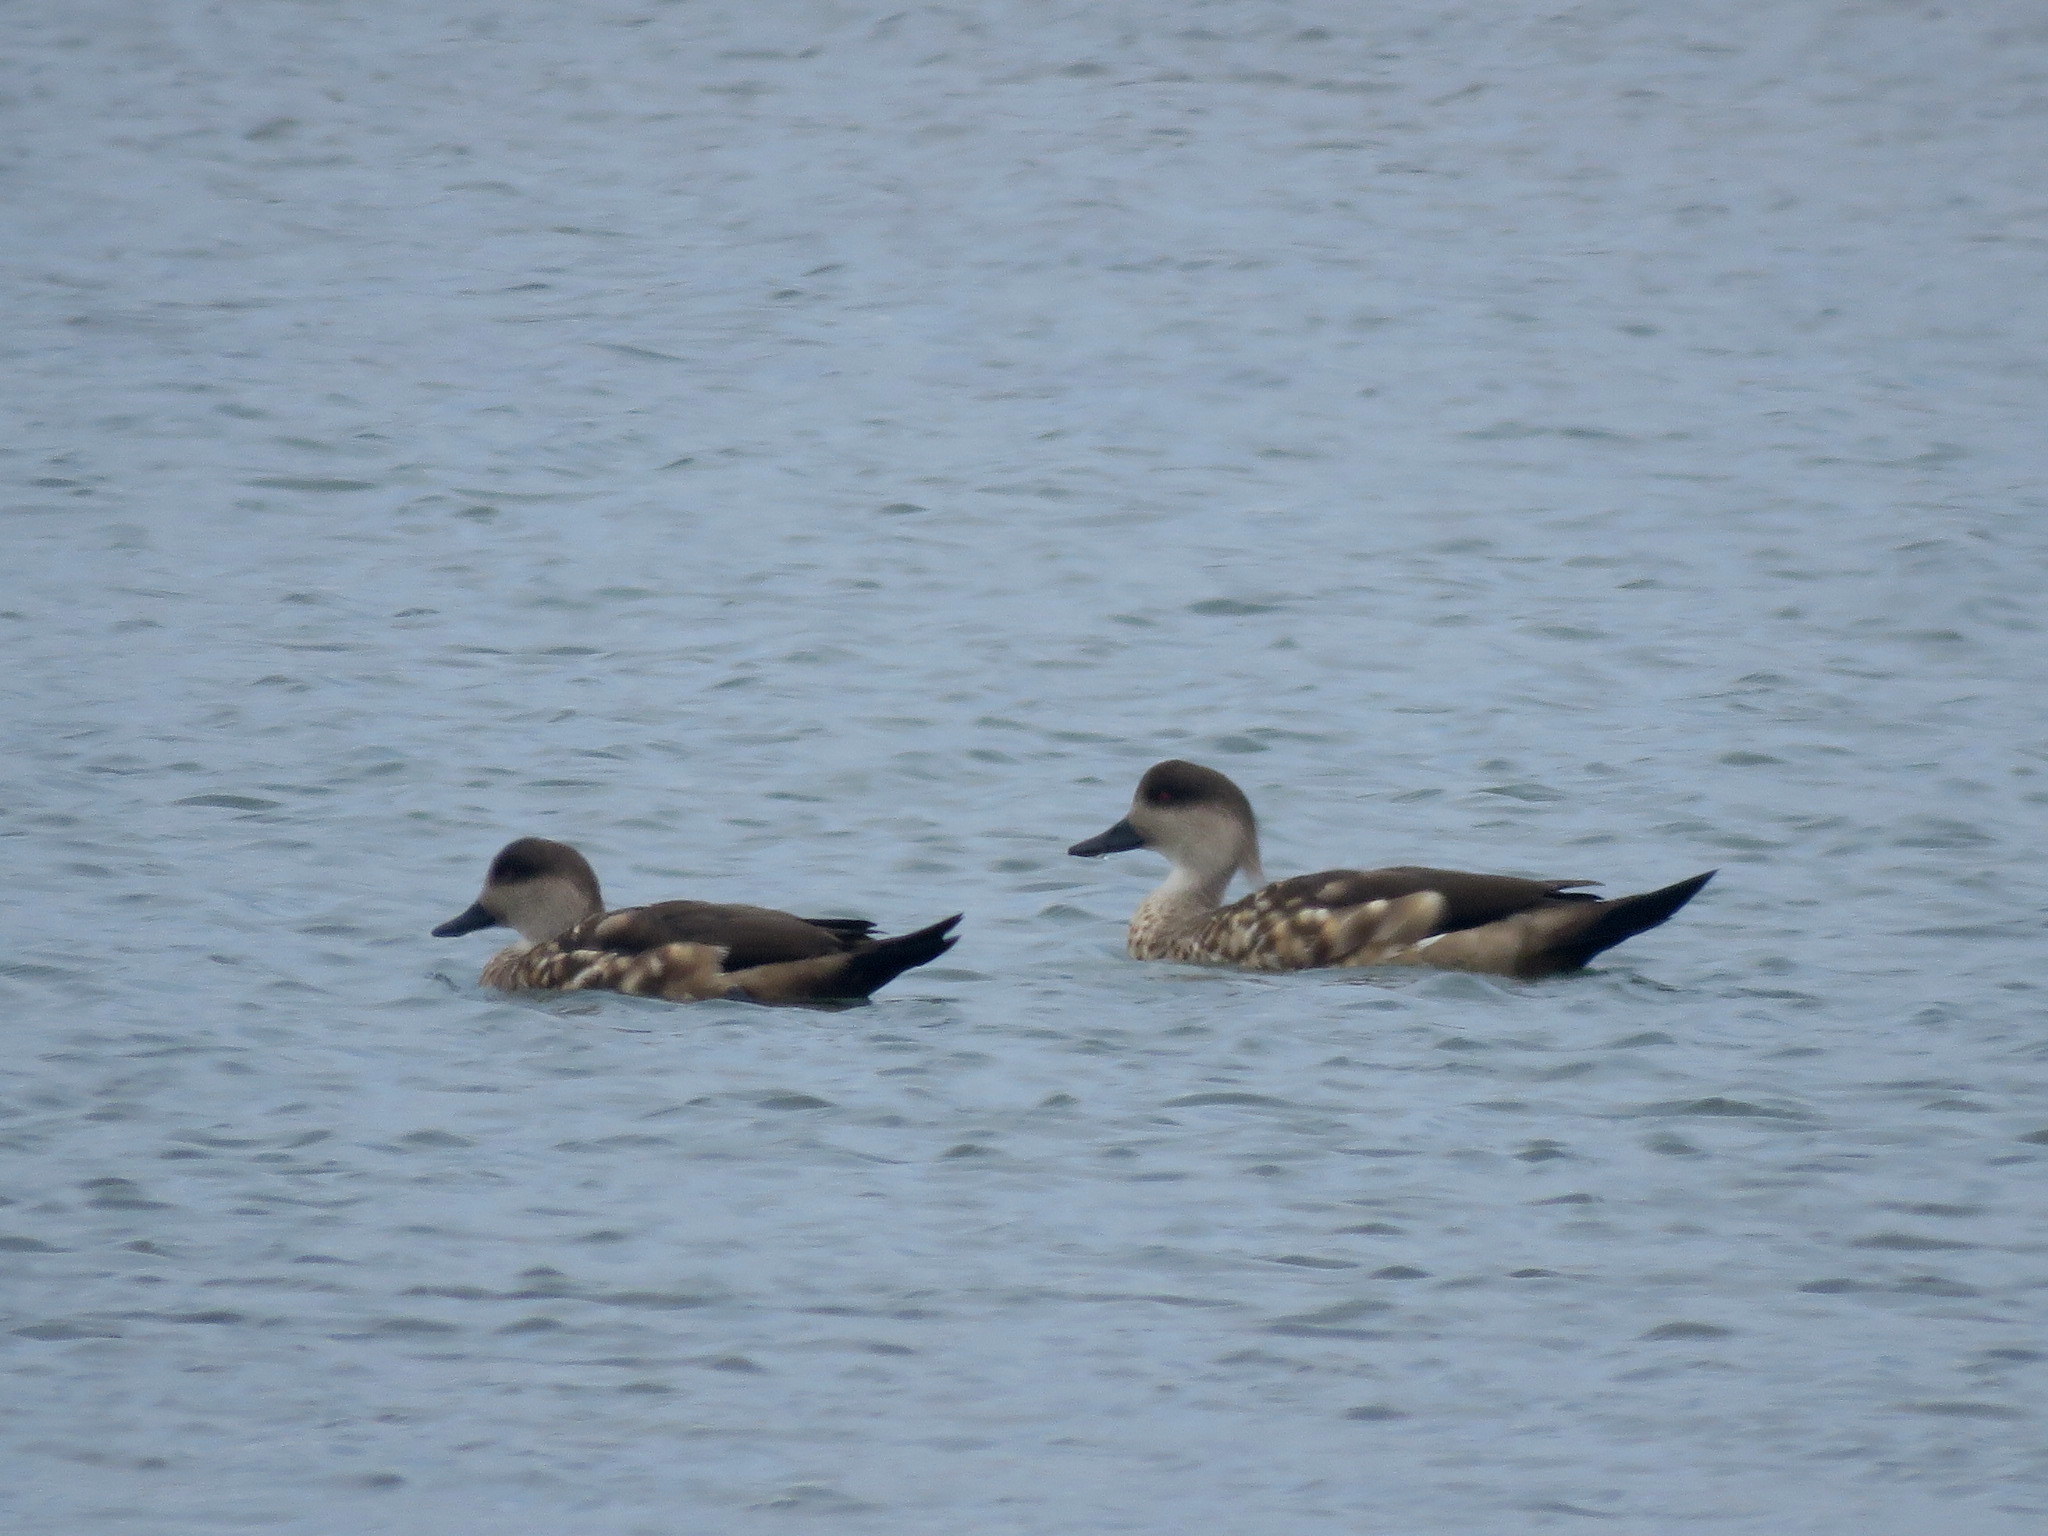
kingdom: Animalia
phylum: Chordata
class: Aves
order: Anseriformes
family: Anatidae
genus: Lophonetta
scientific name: Lophonetta specularioides
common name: Crested duck
